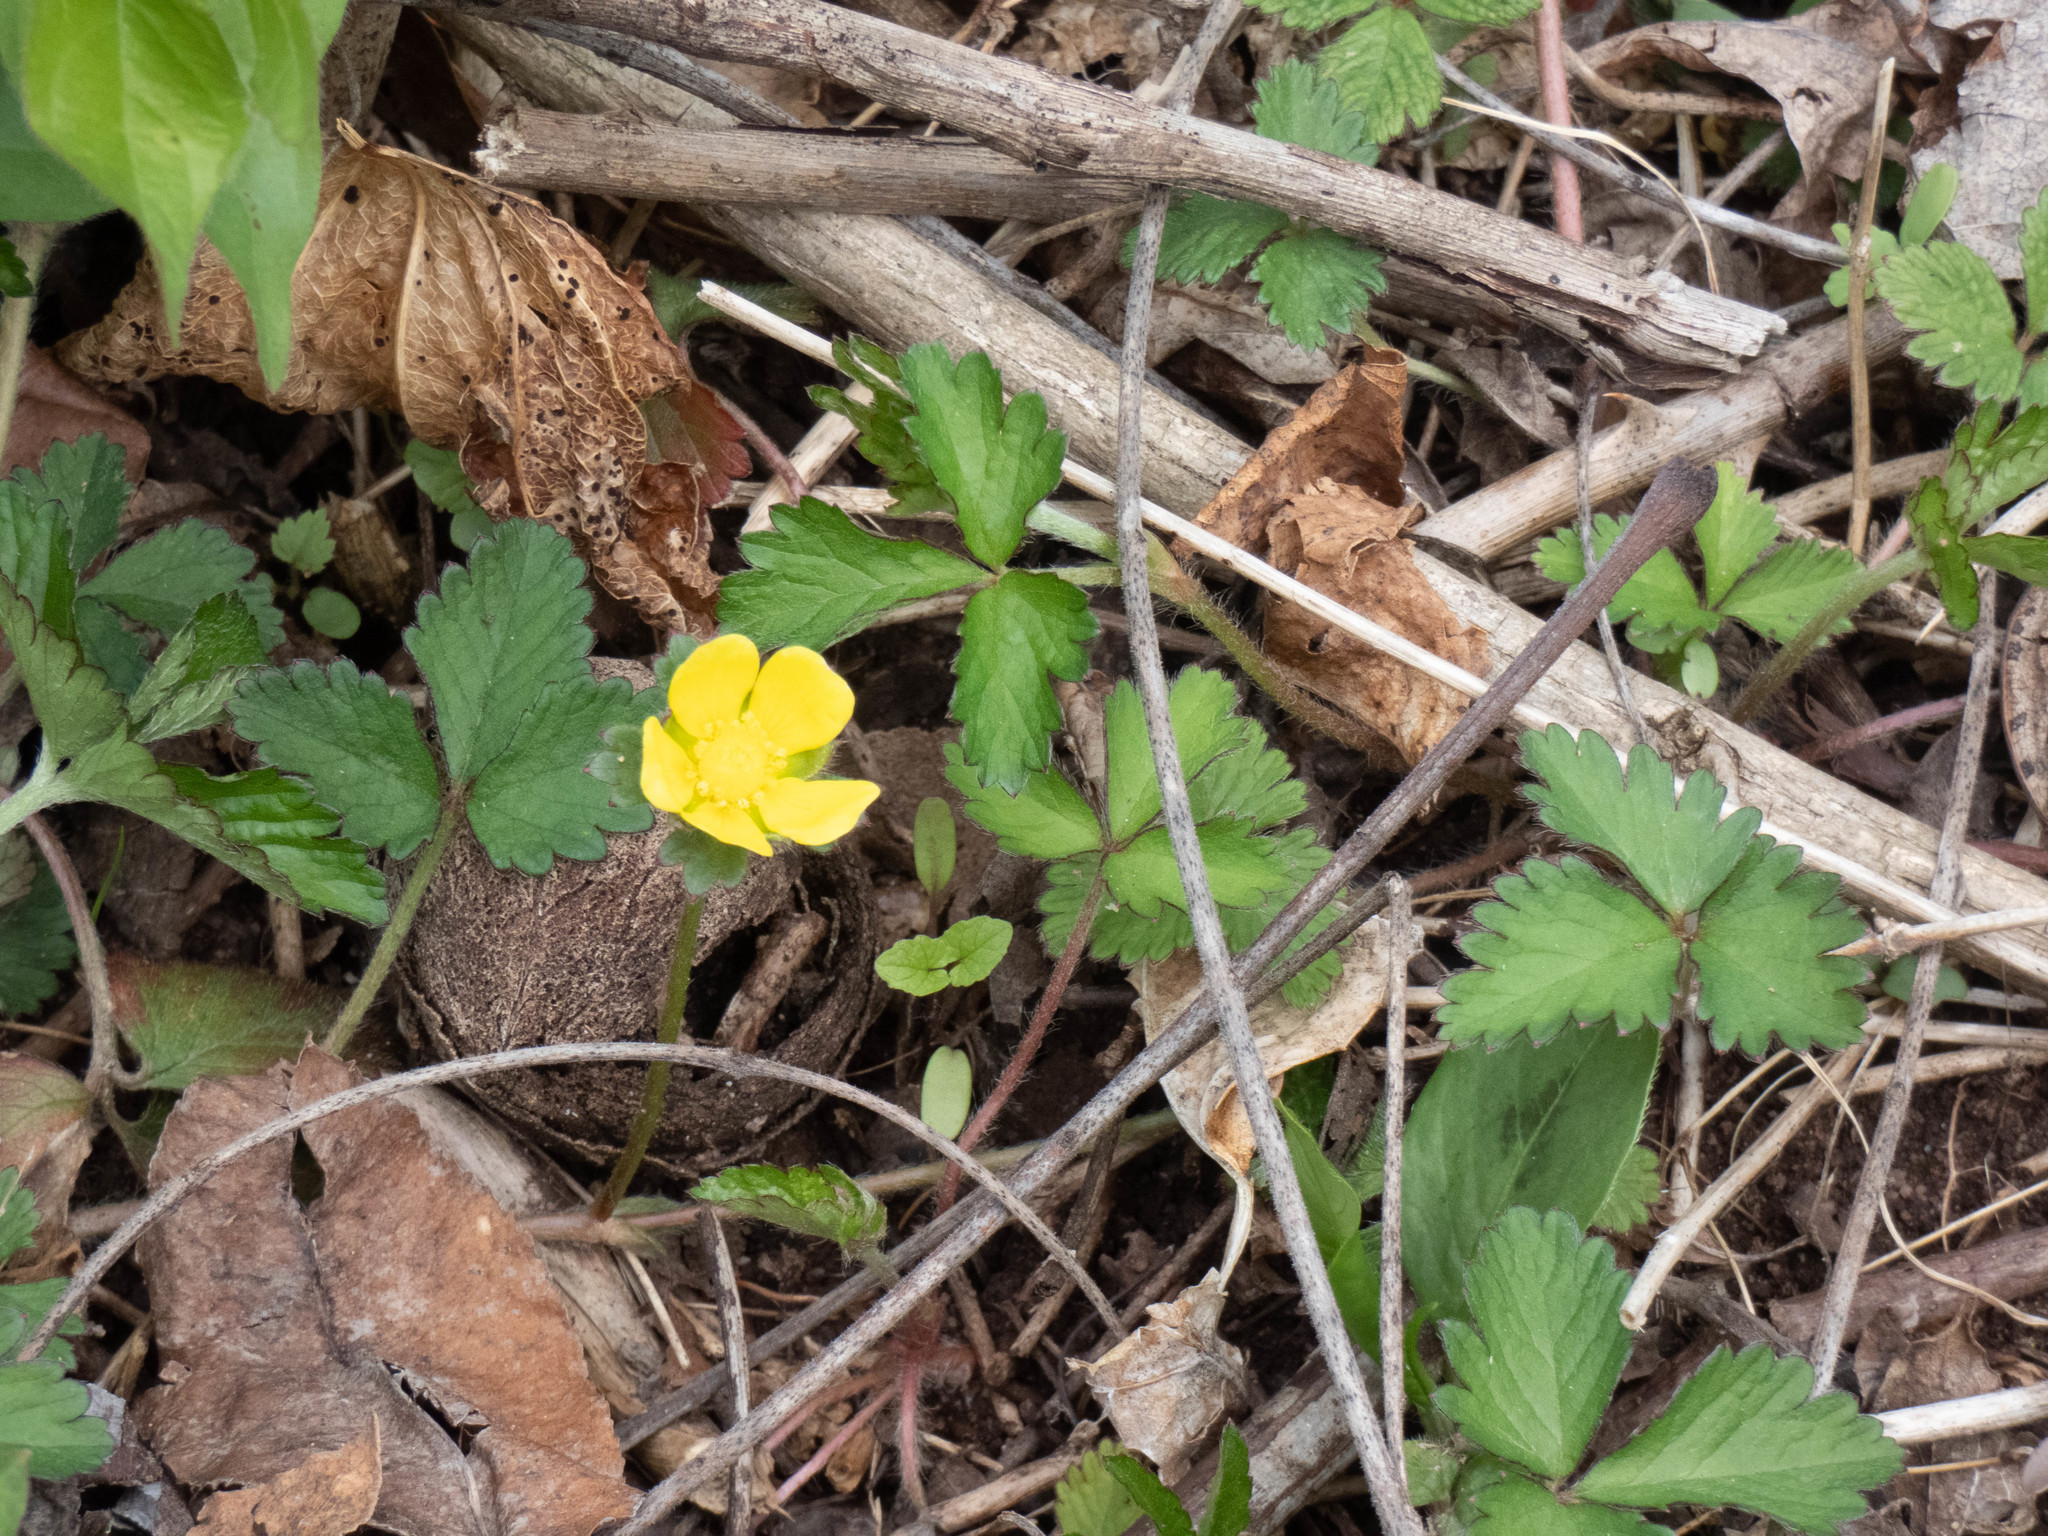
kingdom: Plantae
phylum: Tracheophyta
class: Magnoliopsida
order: Rosales
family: Rosaceae
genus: Potentilla
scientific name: Potentilla indica
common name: Yellow-flowered strawberry
